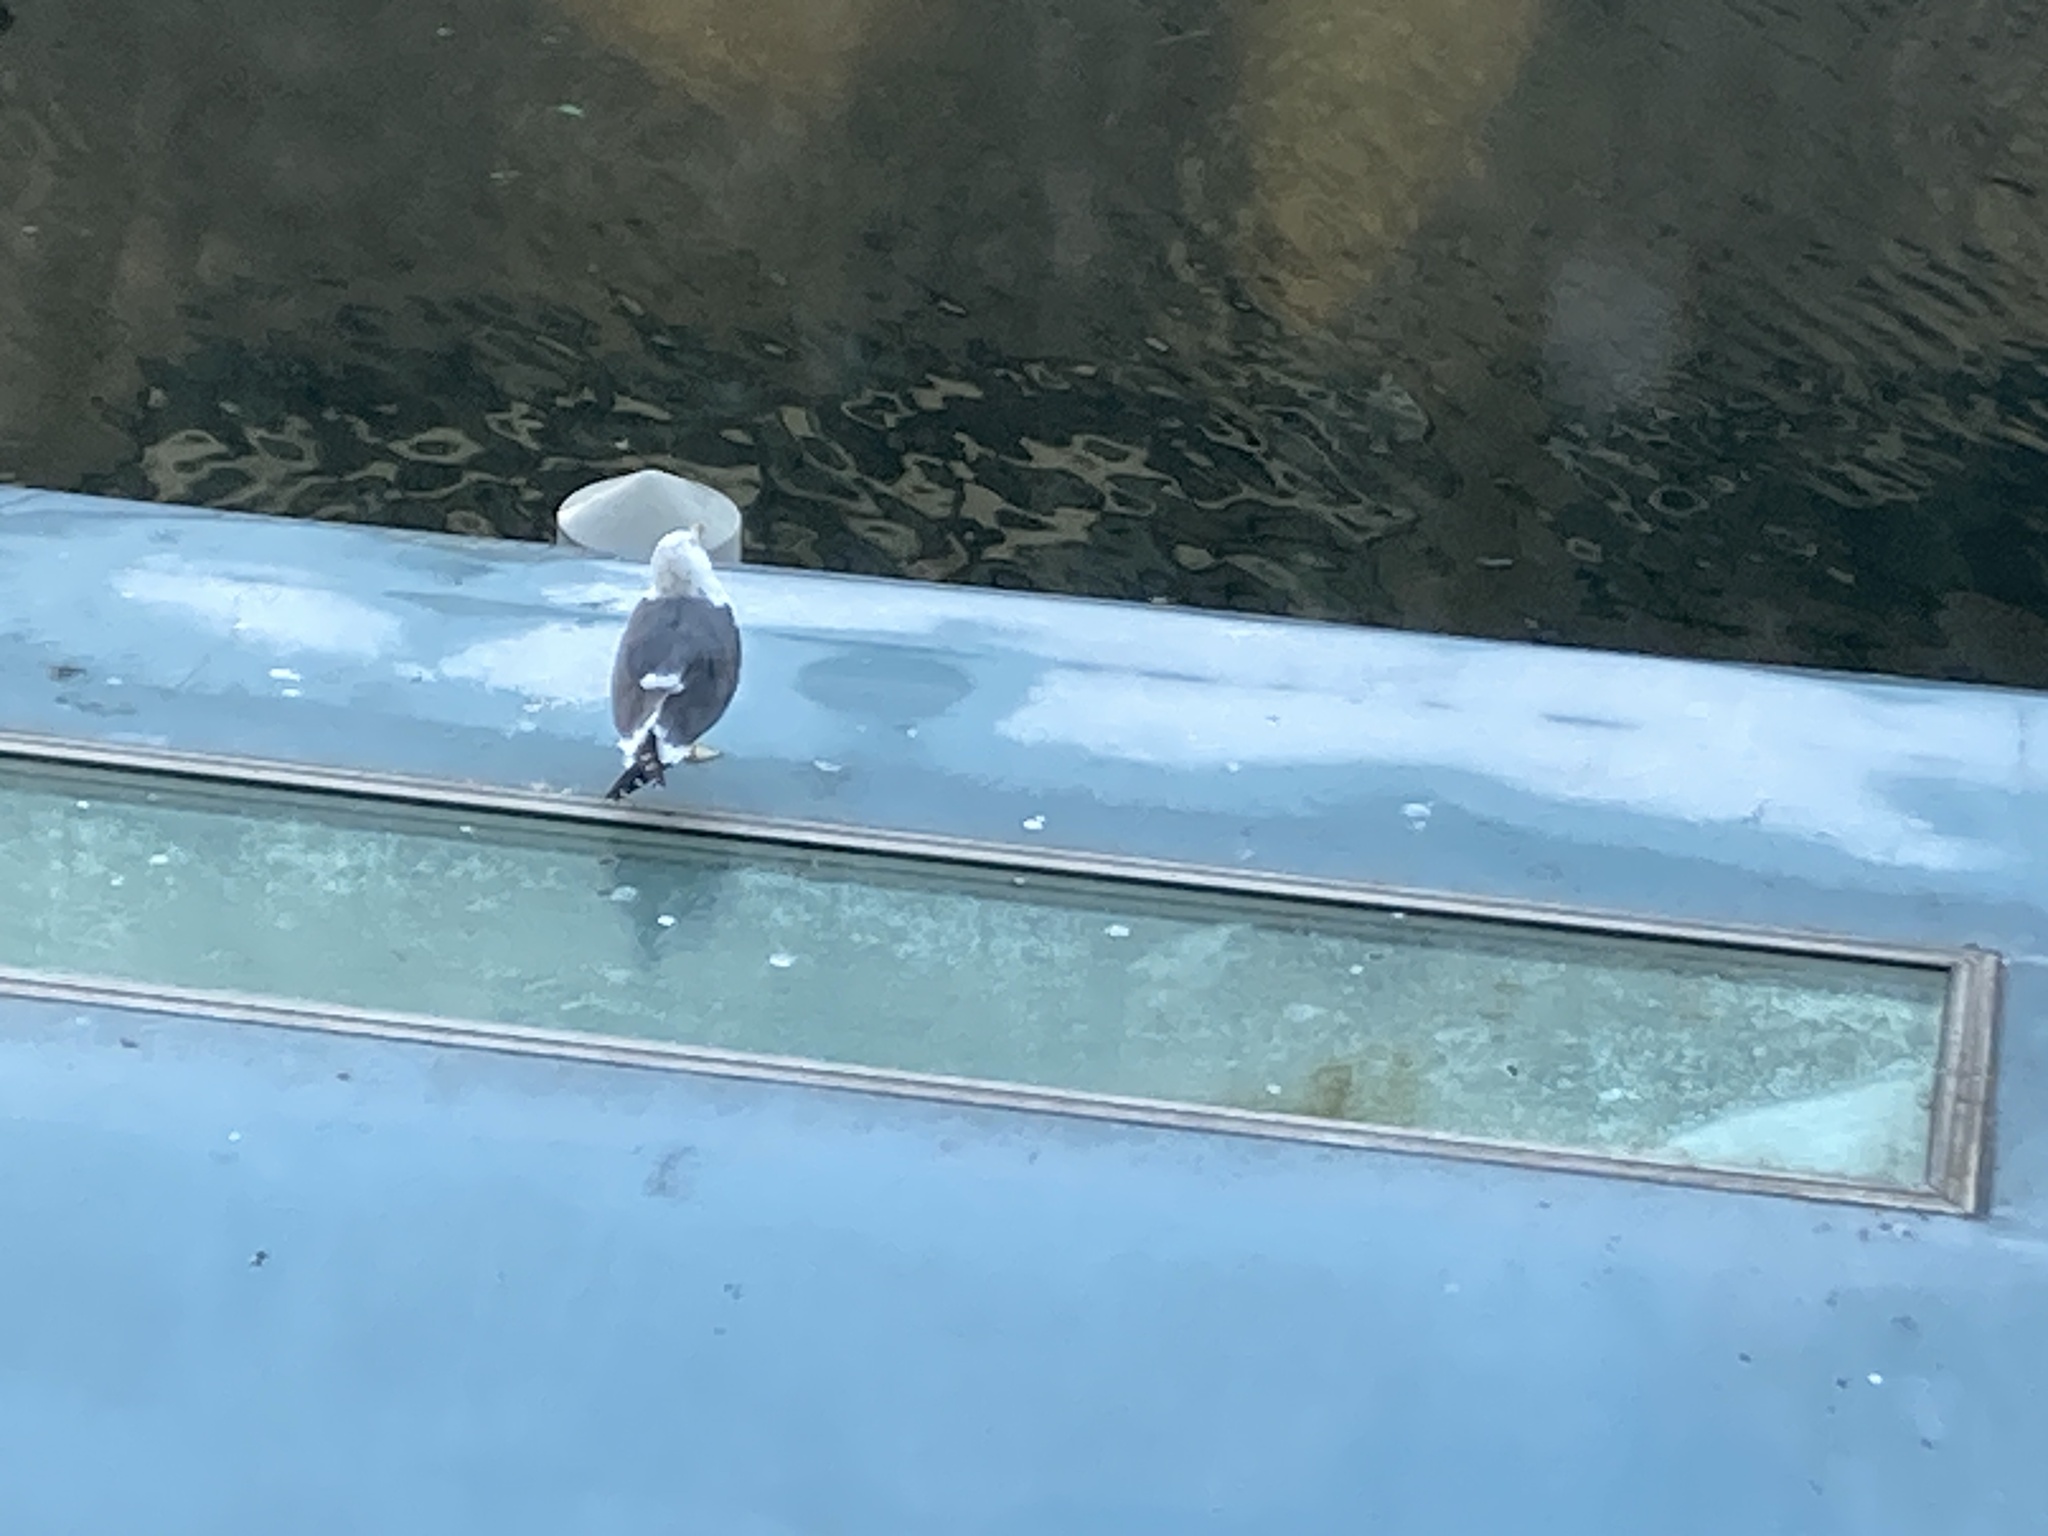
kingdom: Animalia
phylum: Chordata
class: Aves
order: Charadriiformes
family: Laridae
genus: Larus
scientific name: Larus fuscus
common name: Lesser black-backed gull
